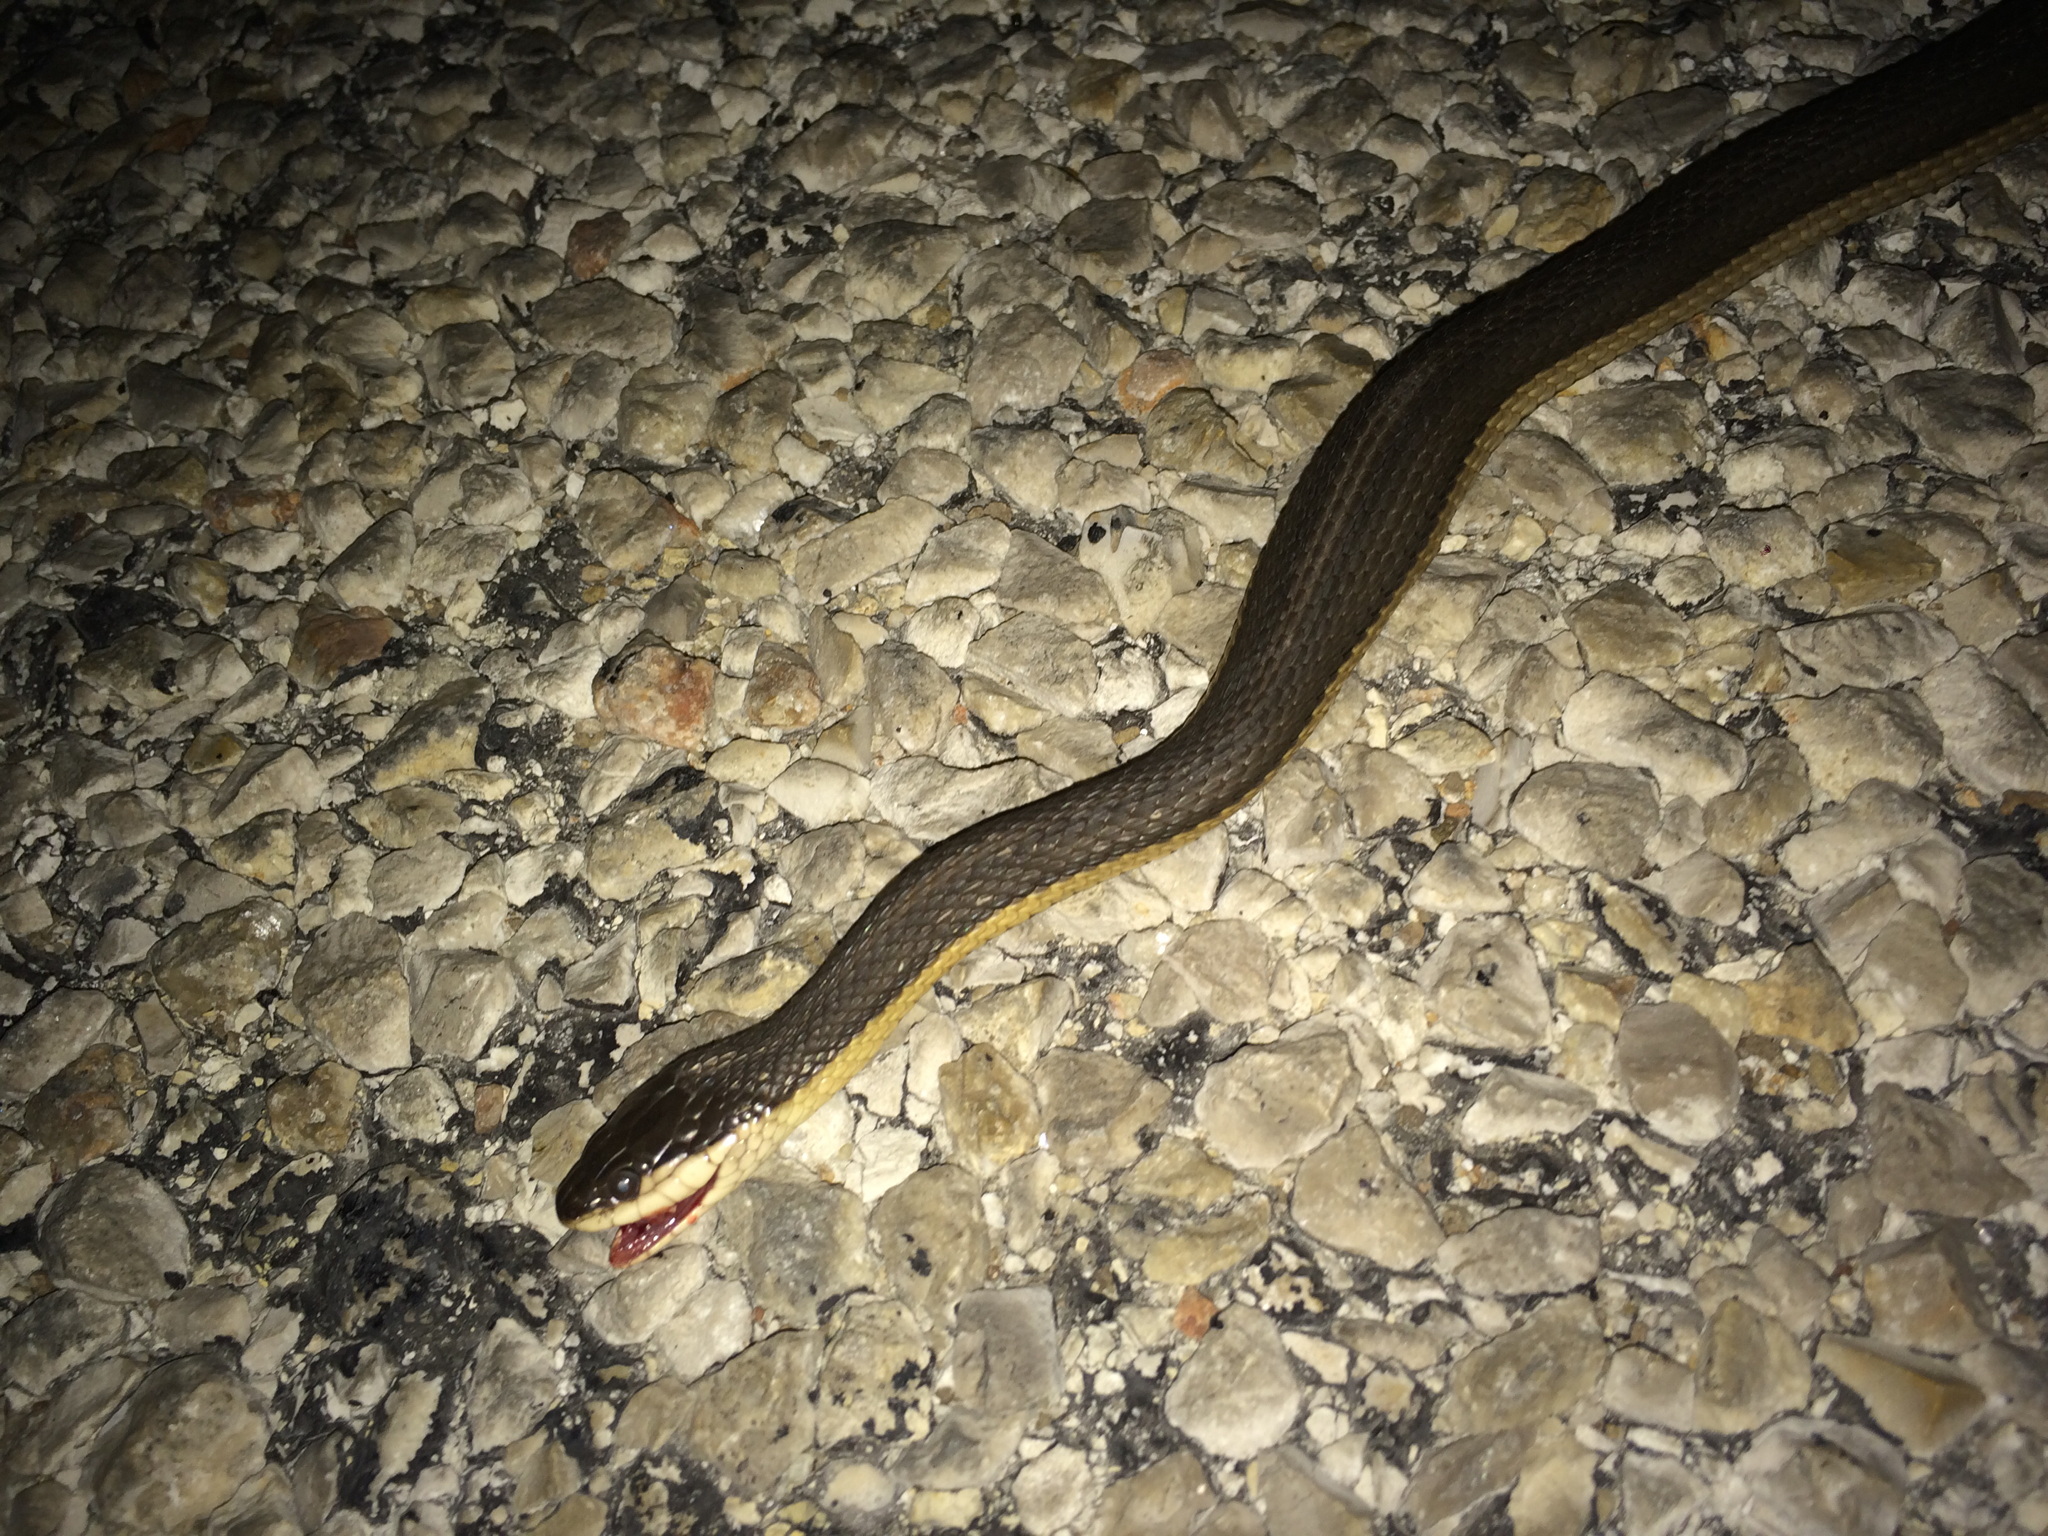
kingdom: Animalia
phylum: Chordata
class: Squamata
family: Colubridae
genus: Regina
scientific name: Regina grahamii
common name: Graham's crayfish snake
